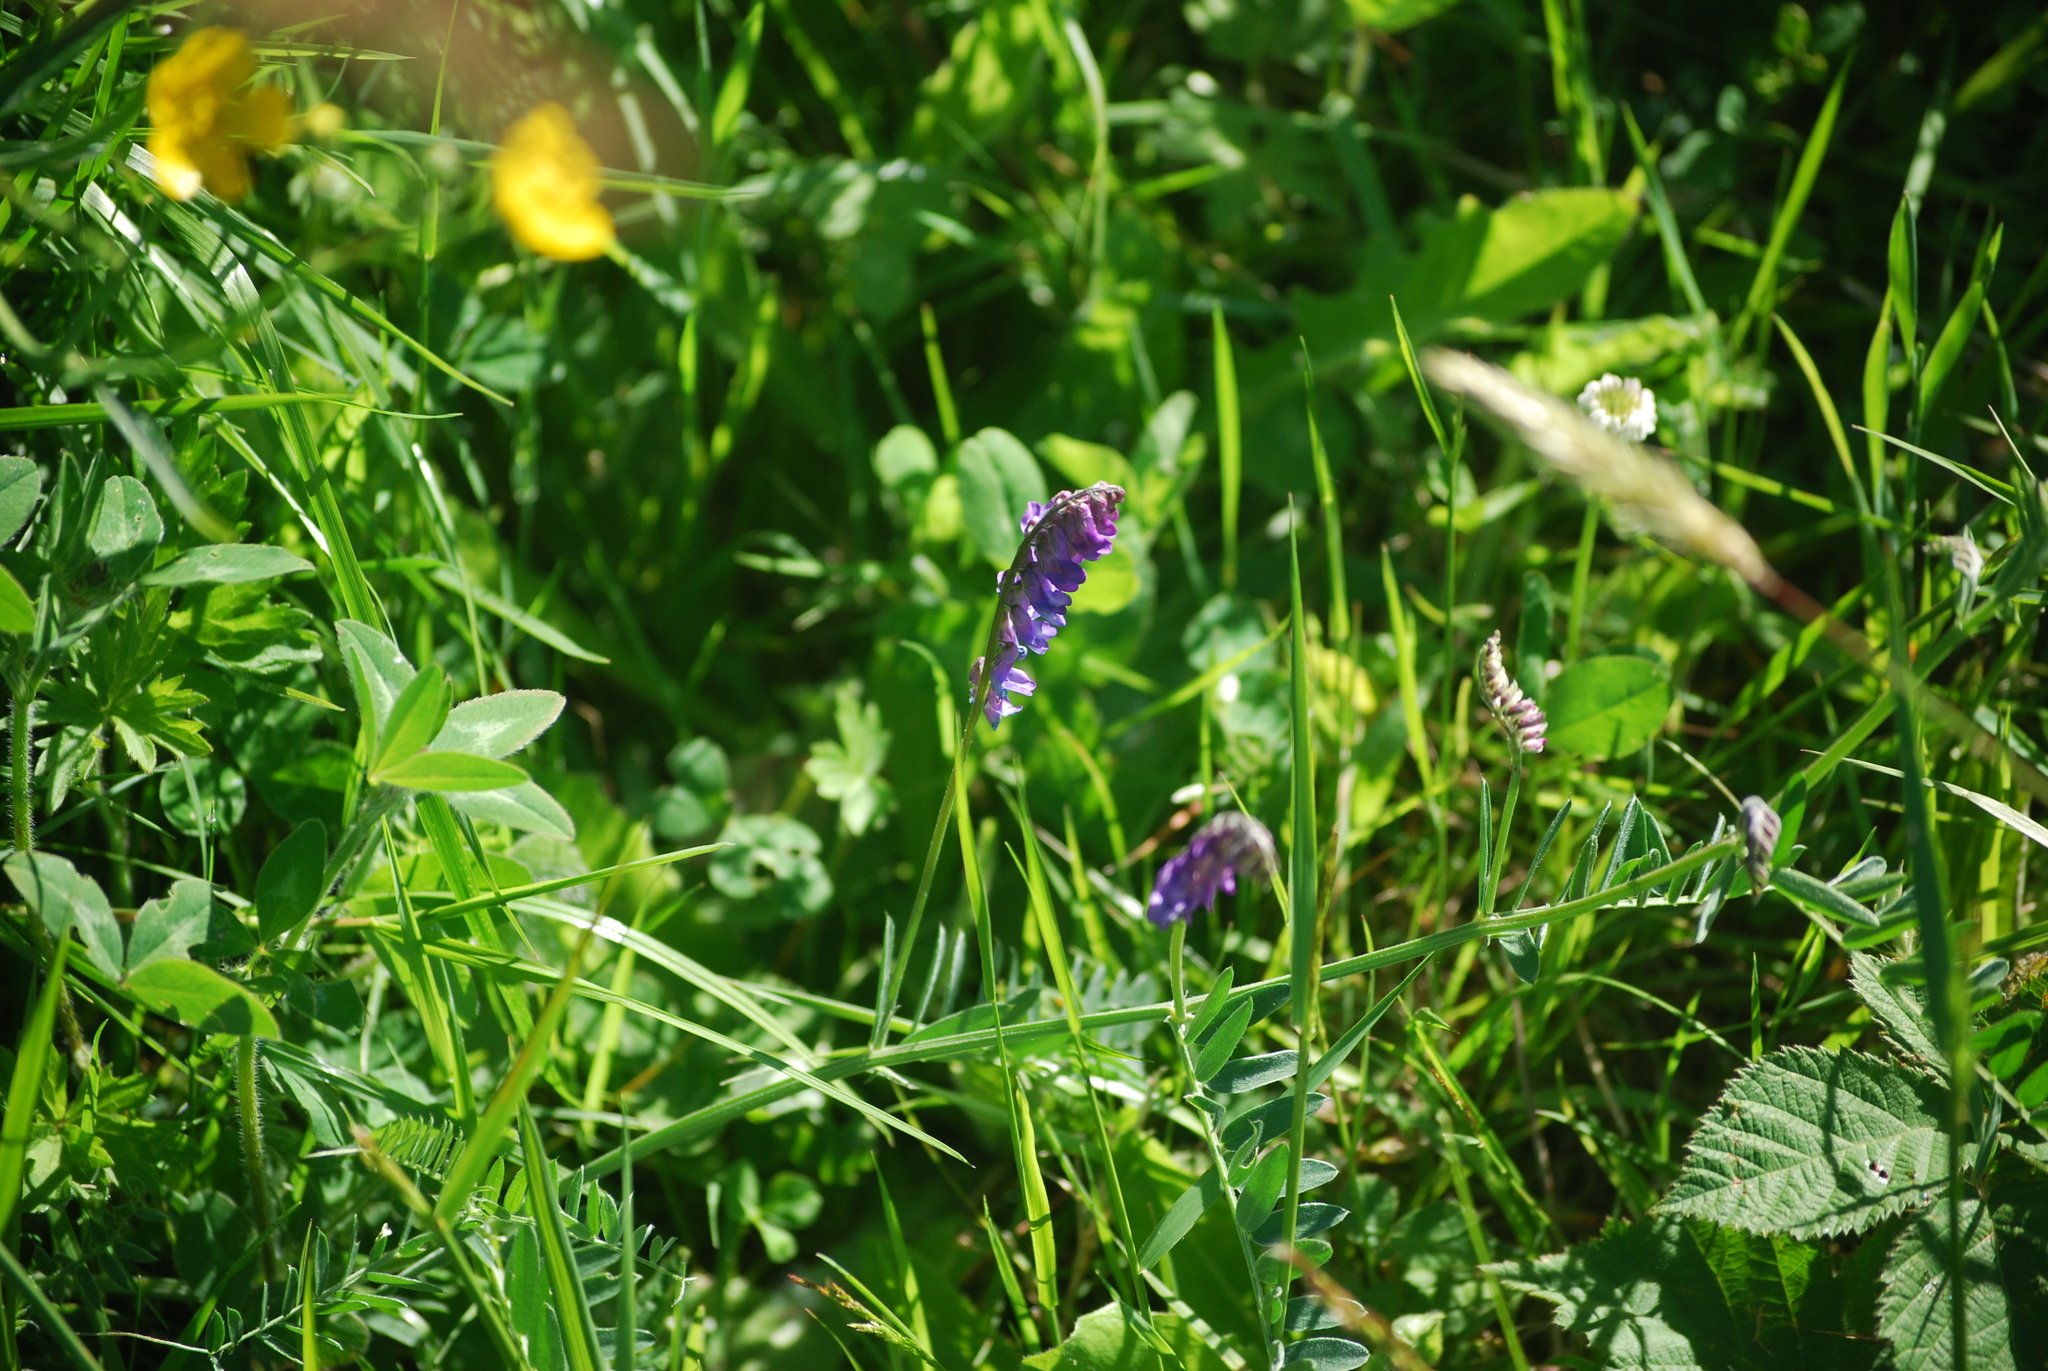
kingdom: Plantae
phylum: Tracheophyta
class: Magnoliopsida
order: Fabales
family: Fabaceae
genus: Vicia
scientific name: Vicia cracca
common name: Bird vetch
